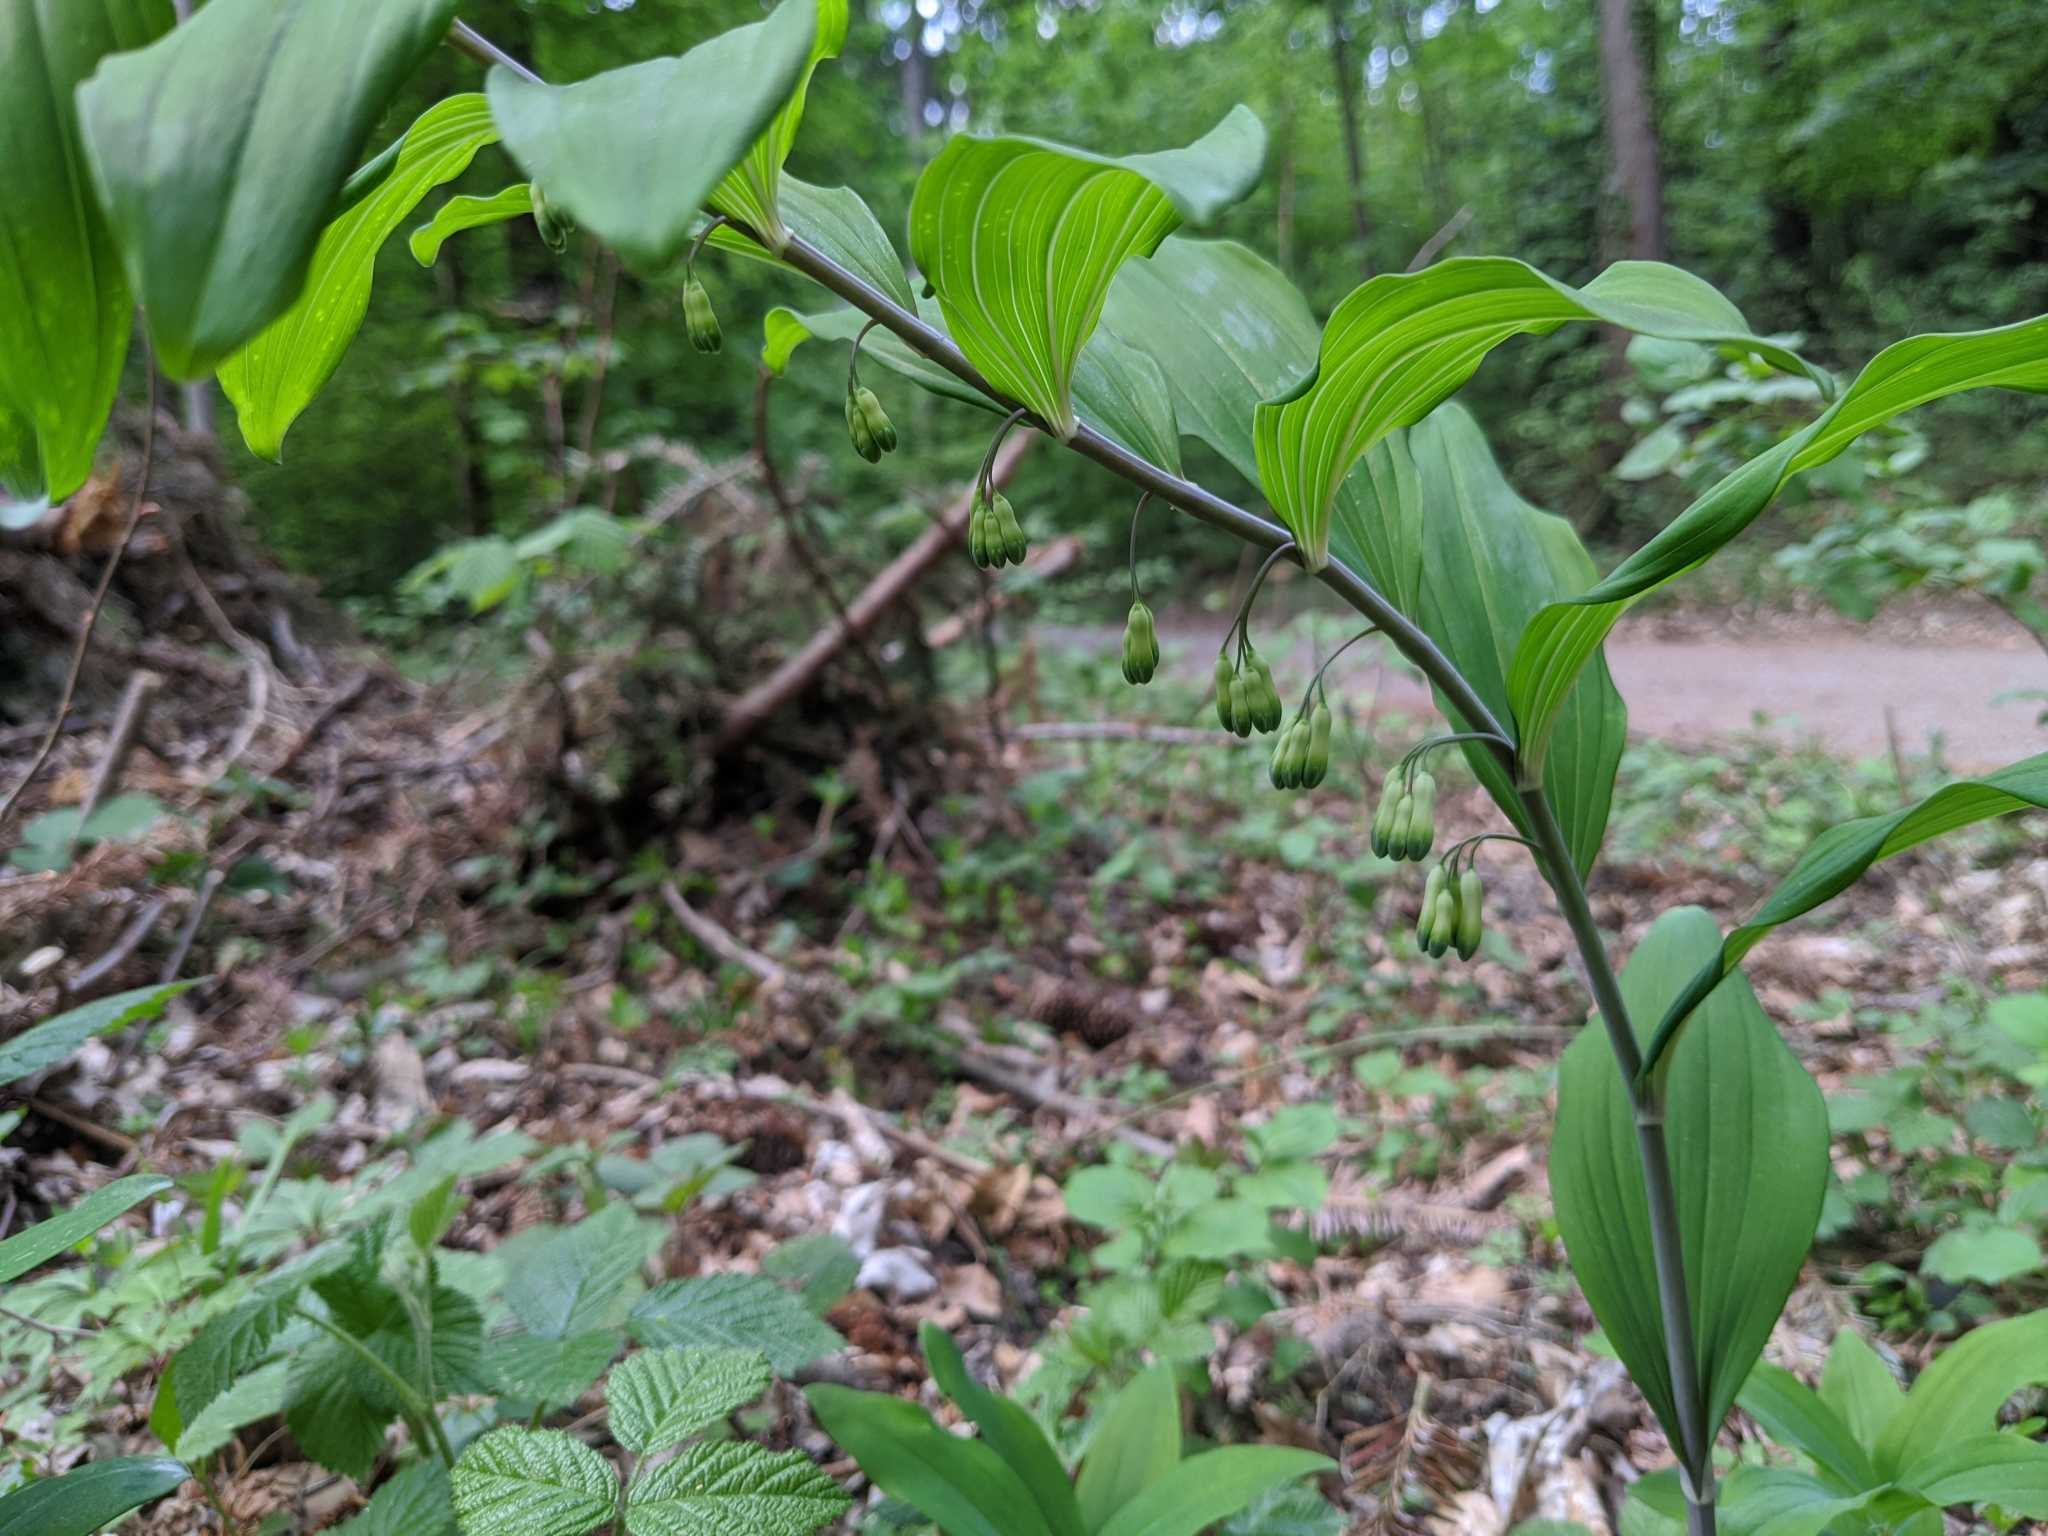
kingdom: Plantae
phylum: Tracheophyta
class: Liliopsida
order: Asparagales
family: Asparagaceae
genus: Polygonatum
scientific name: Polygonatum multiflorum
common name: Solomon's-seal
